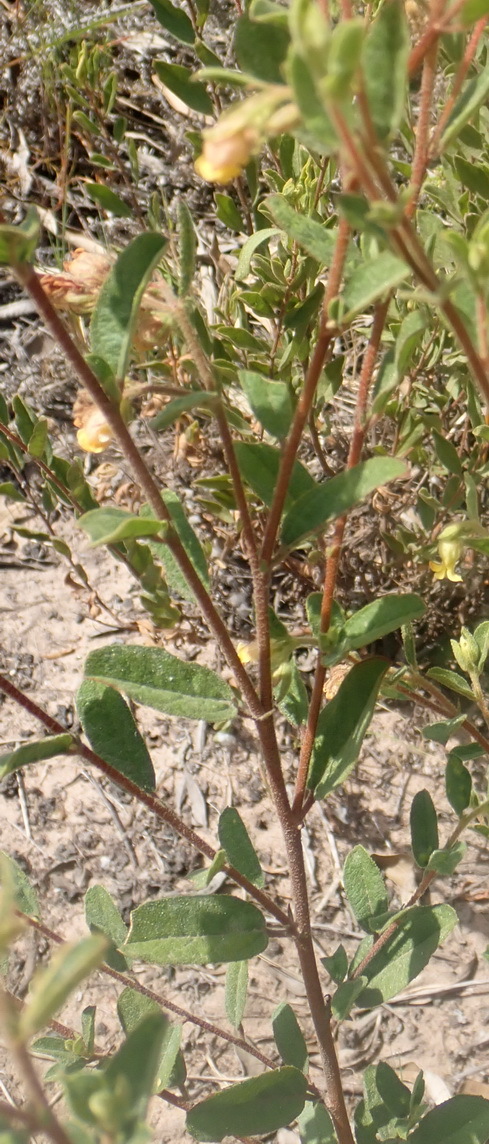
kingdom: Plantae
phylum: Tracheophyta
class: Magnoliopsida
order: Malvales
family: Malvaceae
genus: Hermannia
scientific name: Hermannia salviifolia
